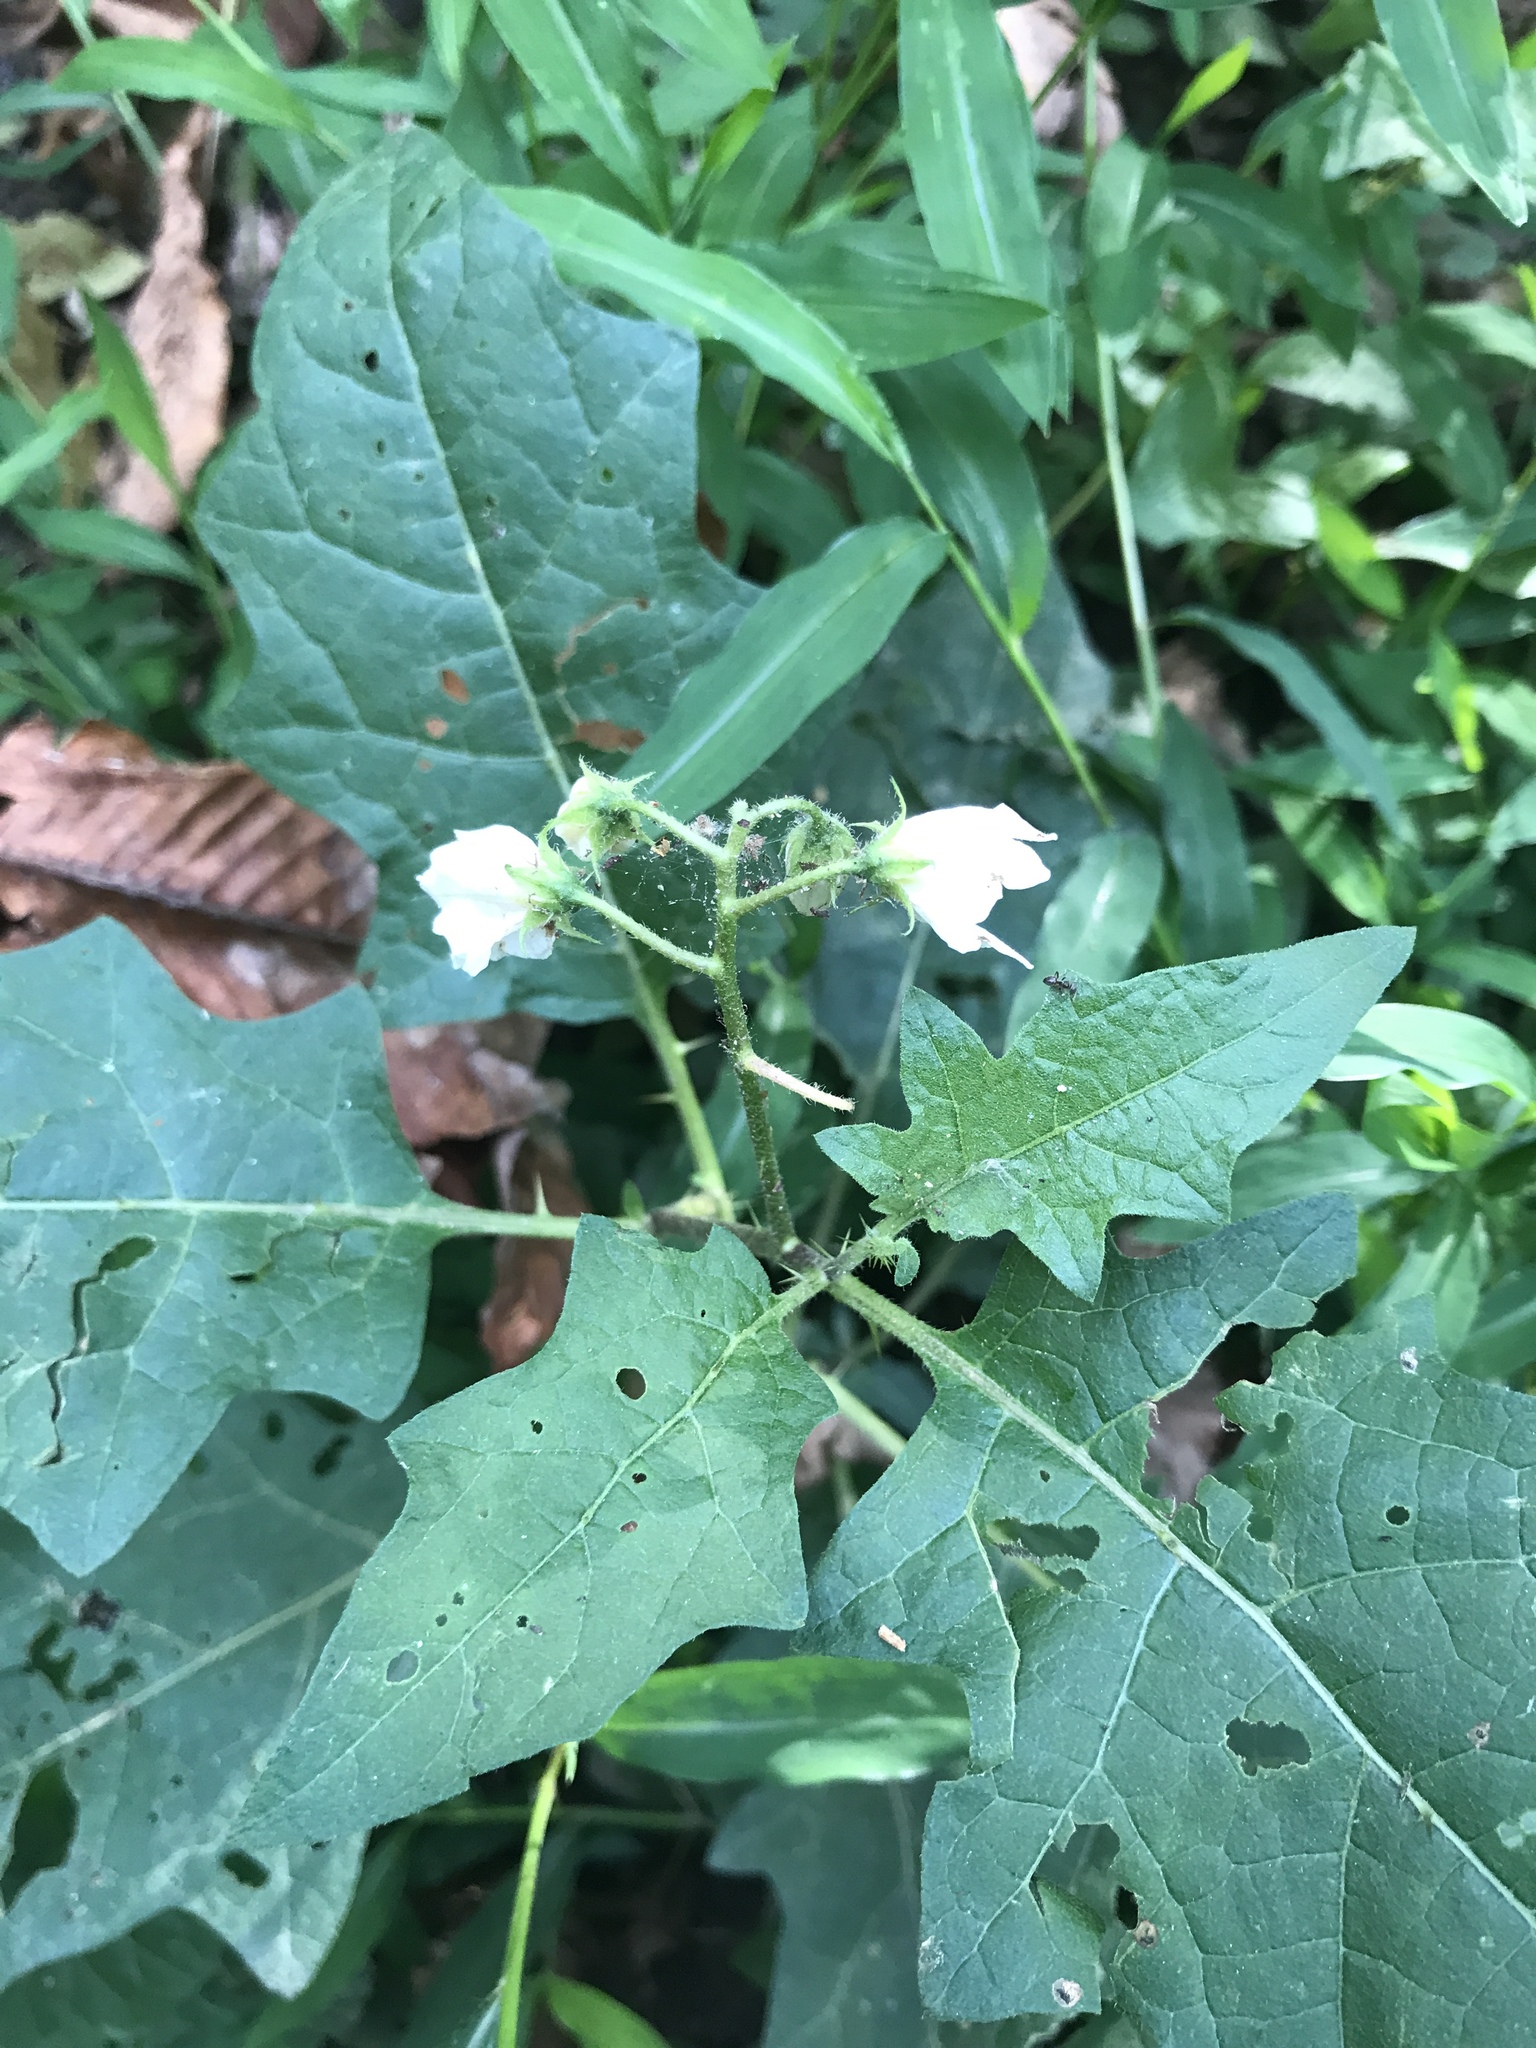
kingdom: Plantae
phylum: Tracheophyta
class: Magnoliopsida
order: Solanales
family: Solanaceae
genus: Solanum
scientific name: Solanum carolinense
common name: Horse-nettle
